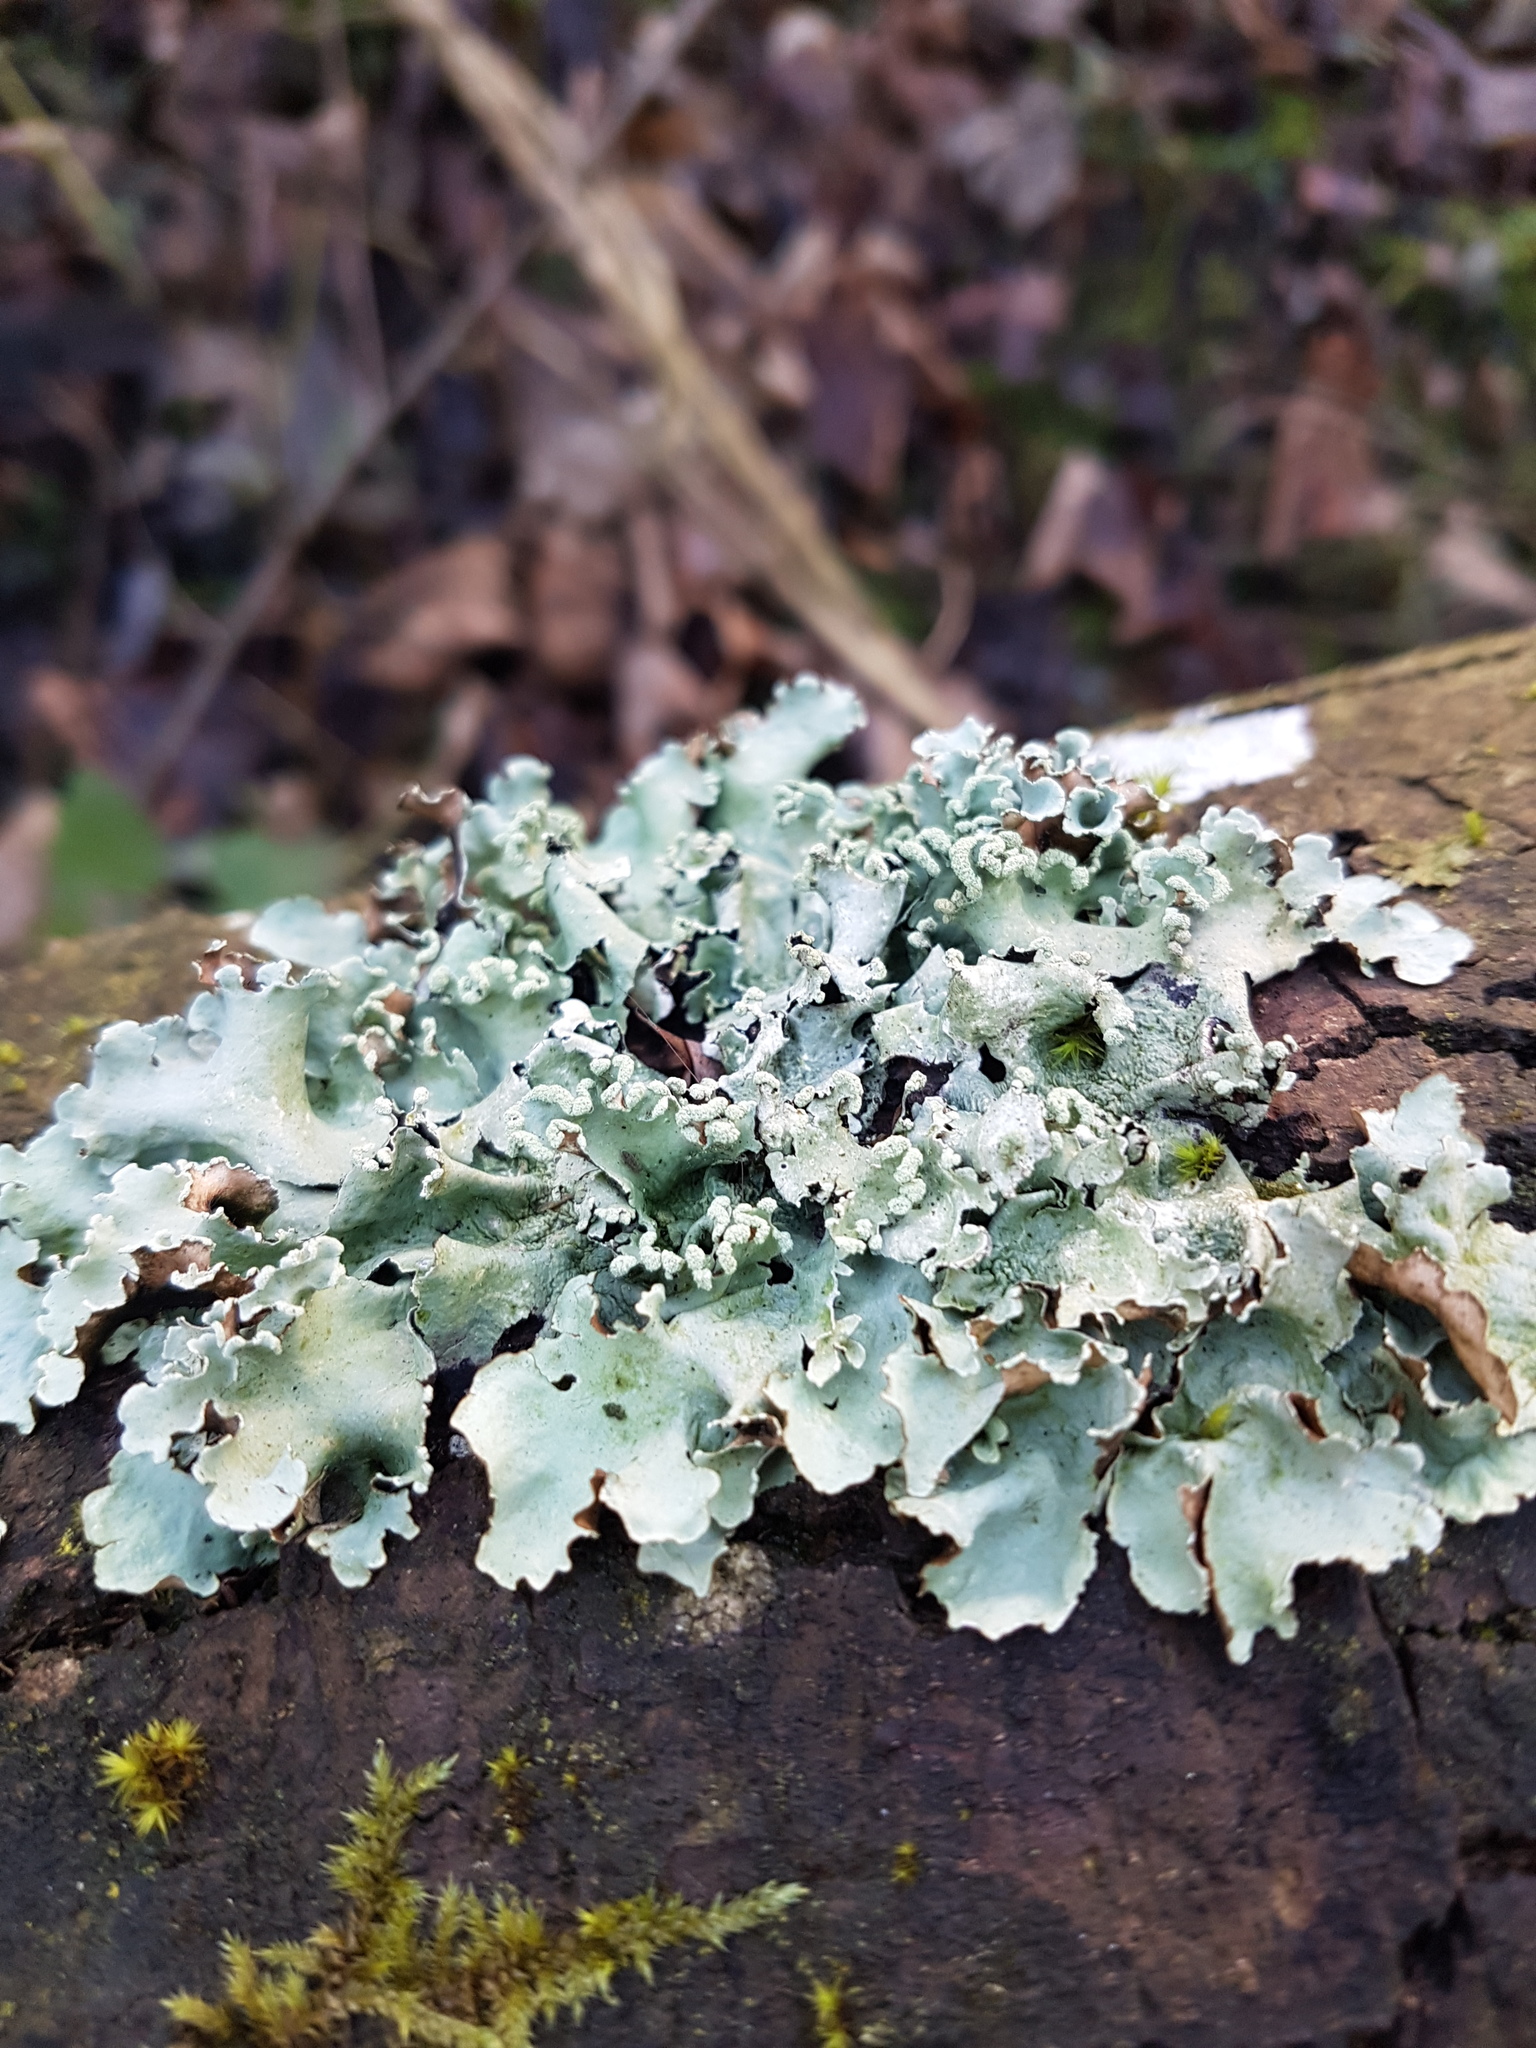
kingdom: Fungi
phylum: Ascomycota
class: Lecanoromycetes
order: Lecanorales
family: Parmeliaceae
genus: Parmotrema
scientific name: Parmotrema perlatum
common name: Black stone flower
